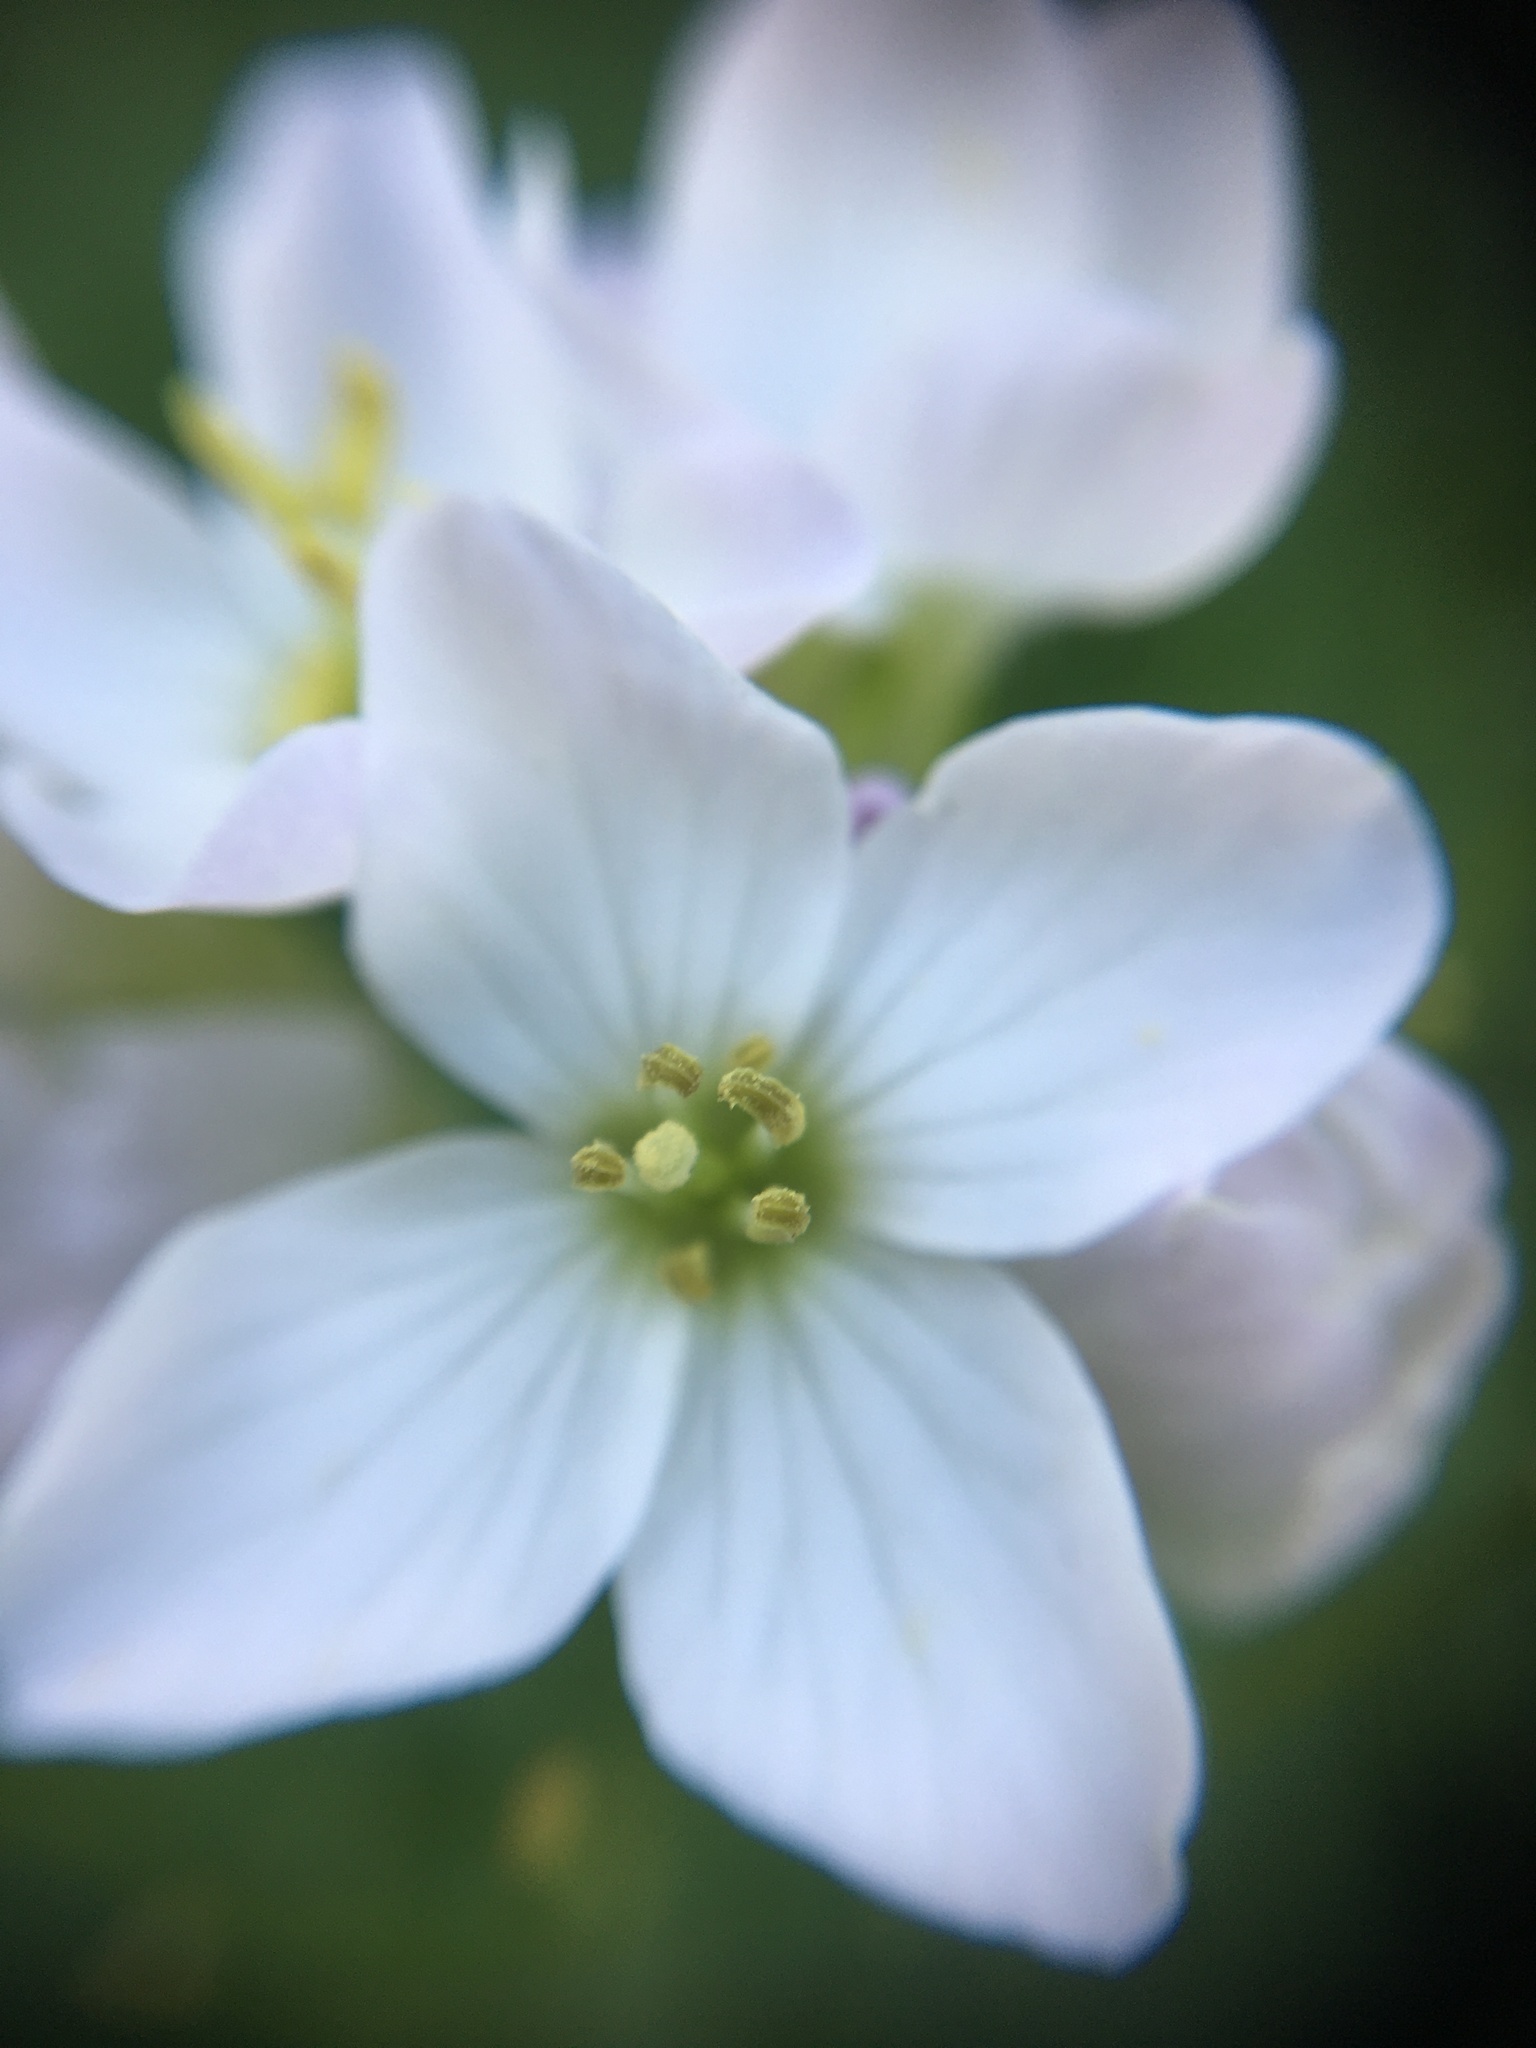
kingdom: Plantae
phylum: Tracheophyta
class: Magnoliopsida
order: Brassicales
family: Brassicaceae
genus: Cardamine
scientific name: Cardamine californica
